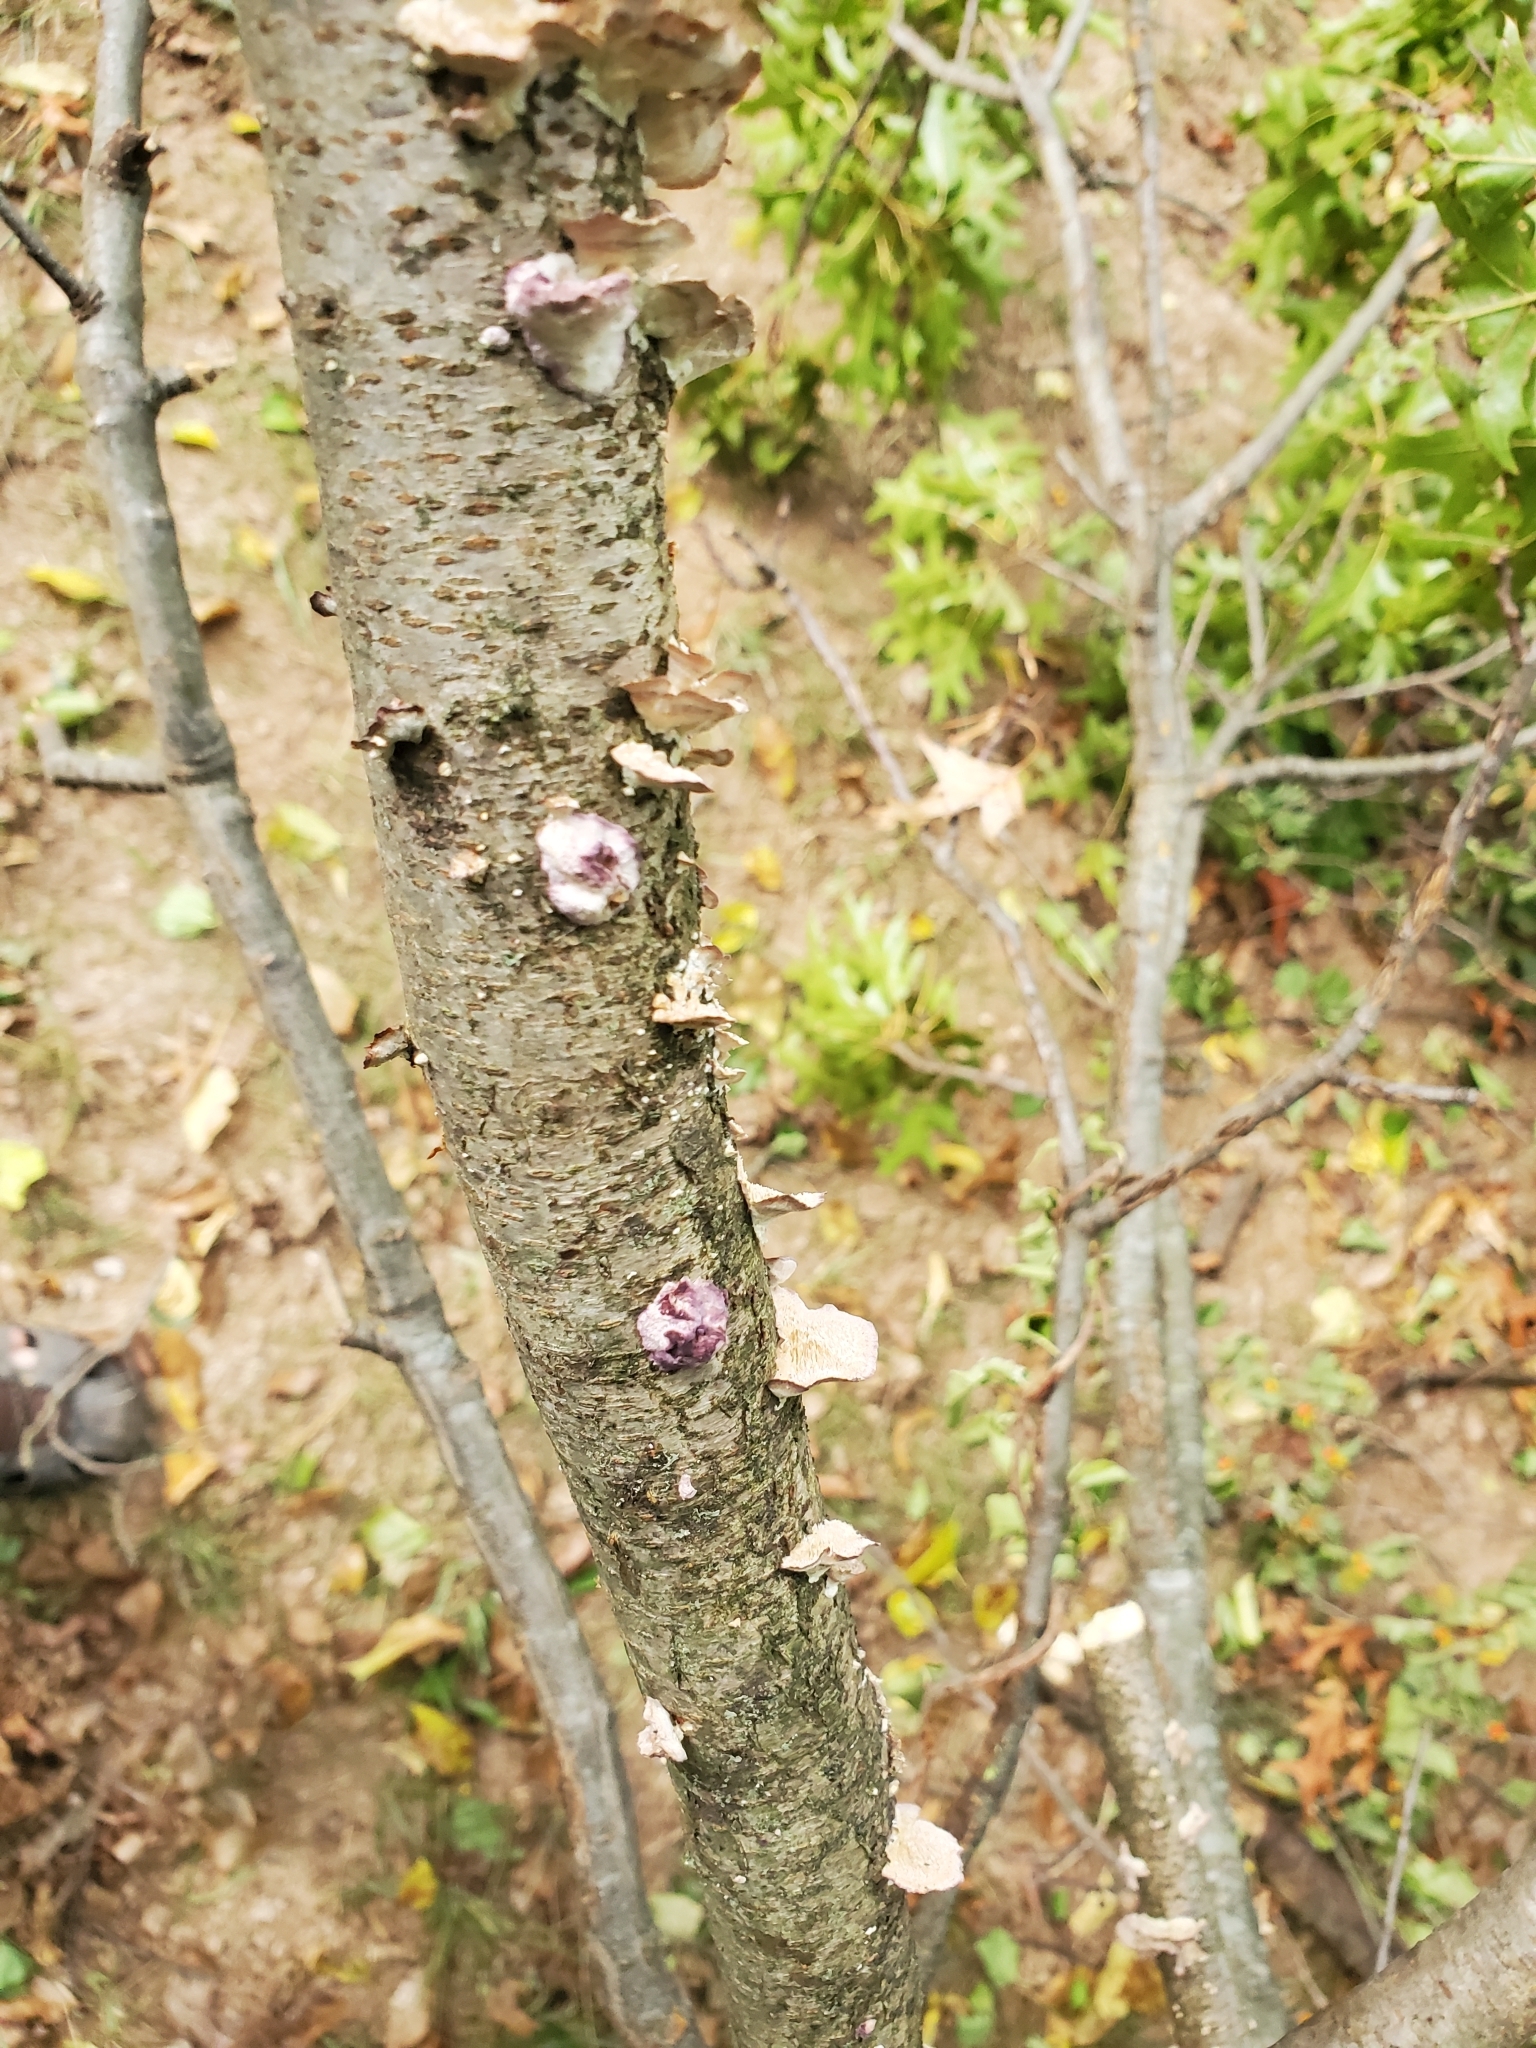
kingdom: Fungi
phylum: Basidiomycota
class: Agaricomycetes
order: Hymenochaetales
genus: Trichaptum
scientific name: Trichaptum biforme
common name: Violet-toothed polypore
